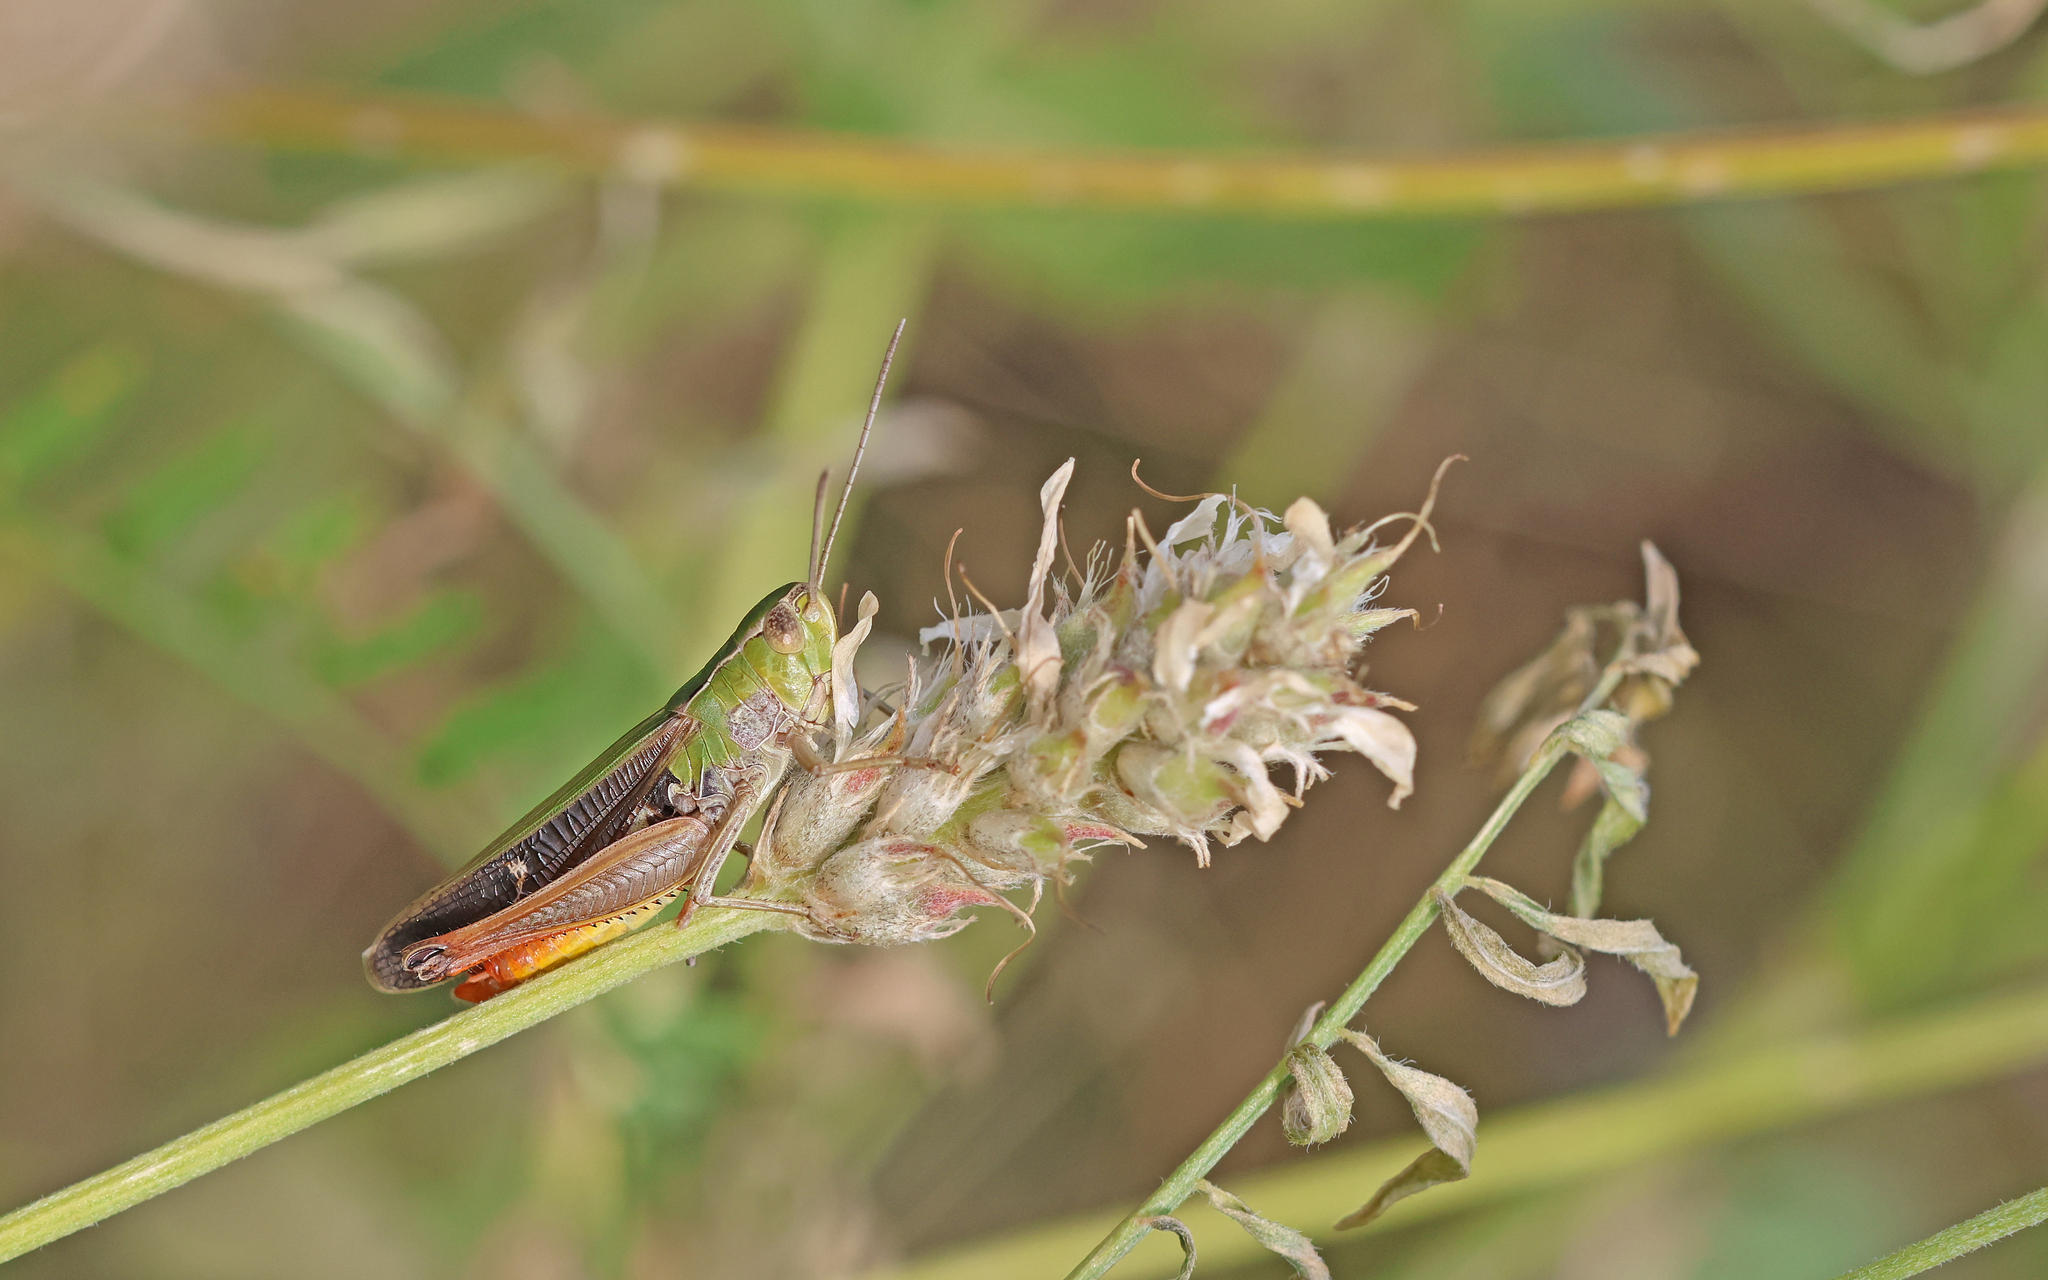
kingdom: Animalia
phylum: Arthropoda
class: Insecta
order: Orthoptera
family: Acrididae
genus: Stenobothrus
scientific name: Stenobothrus lineatus
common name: Stripe-winged grasshopper
